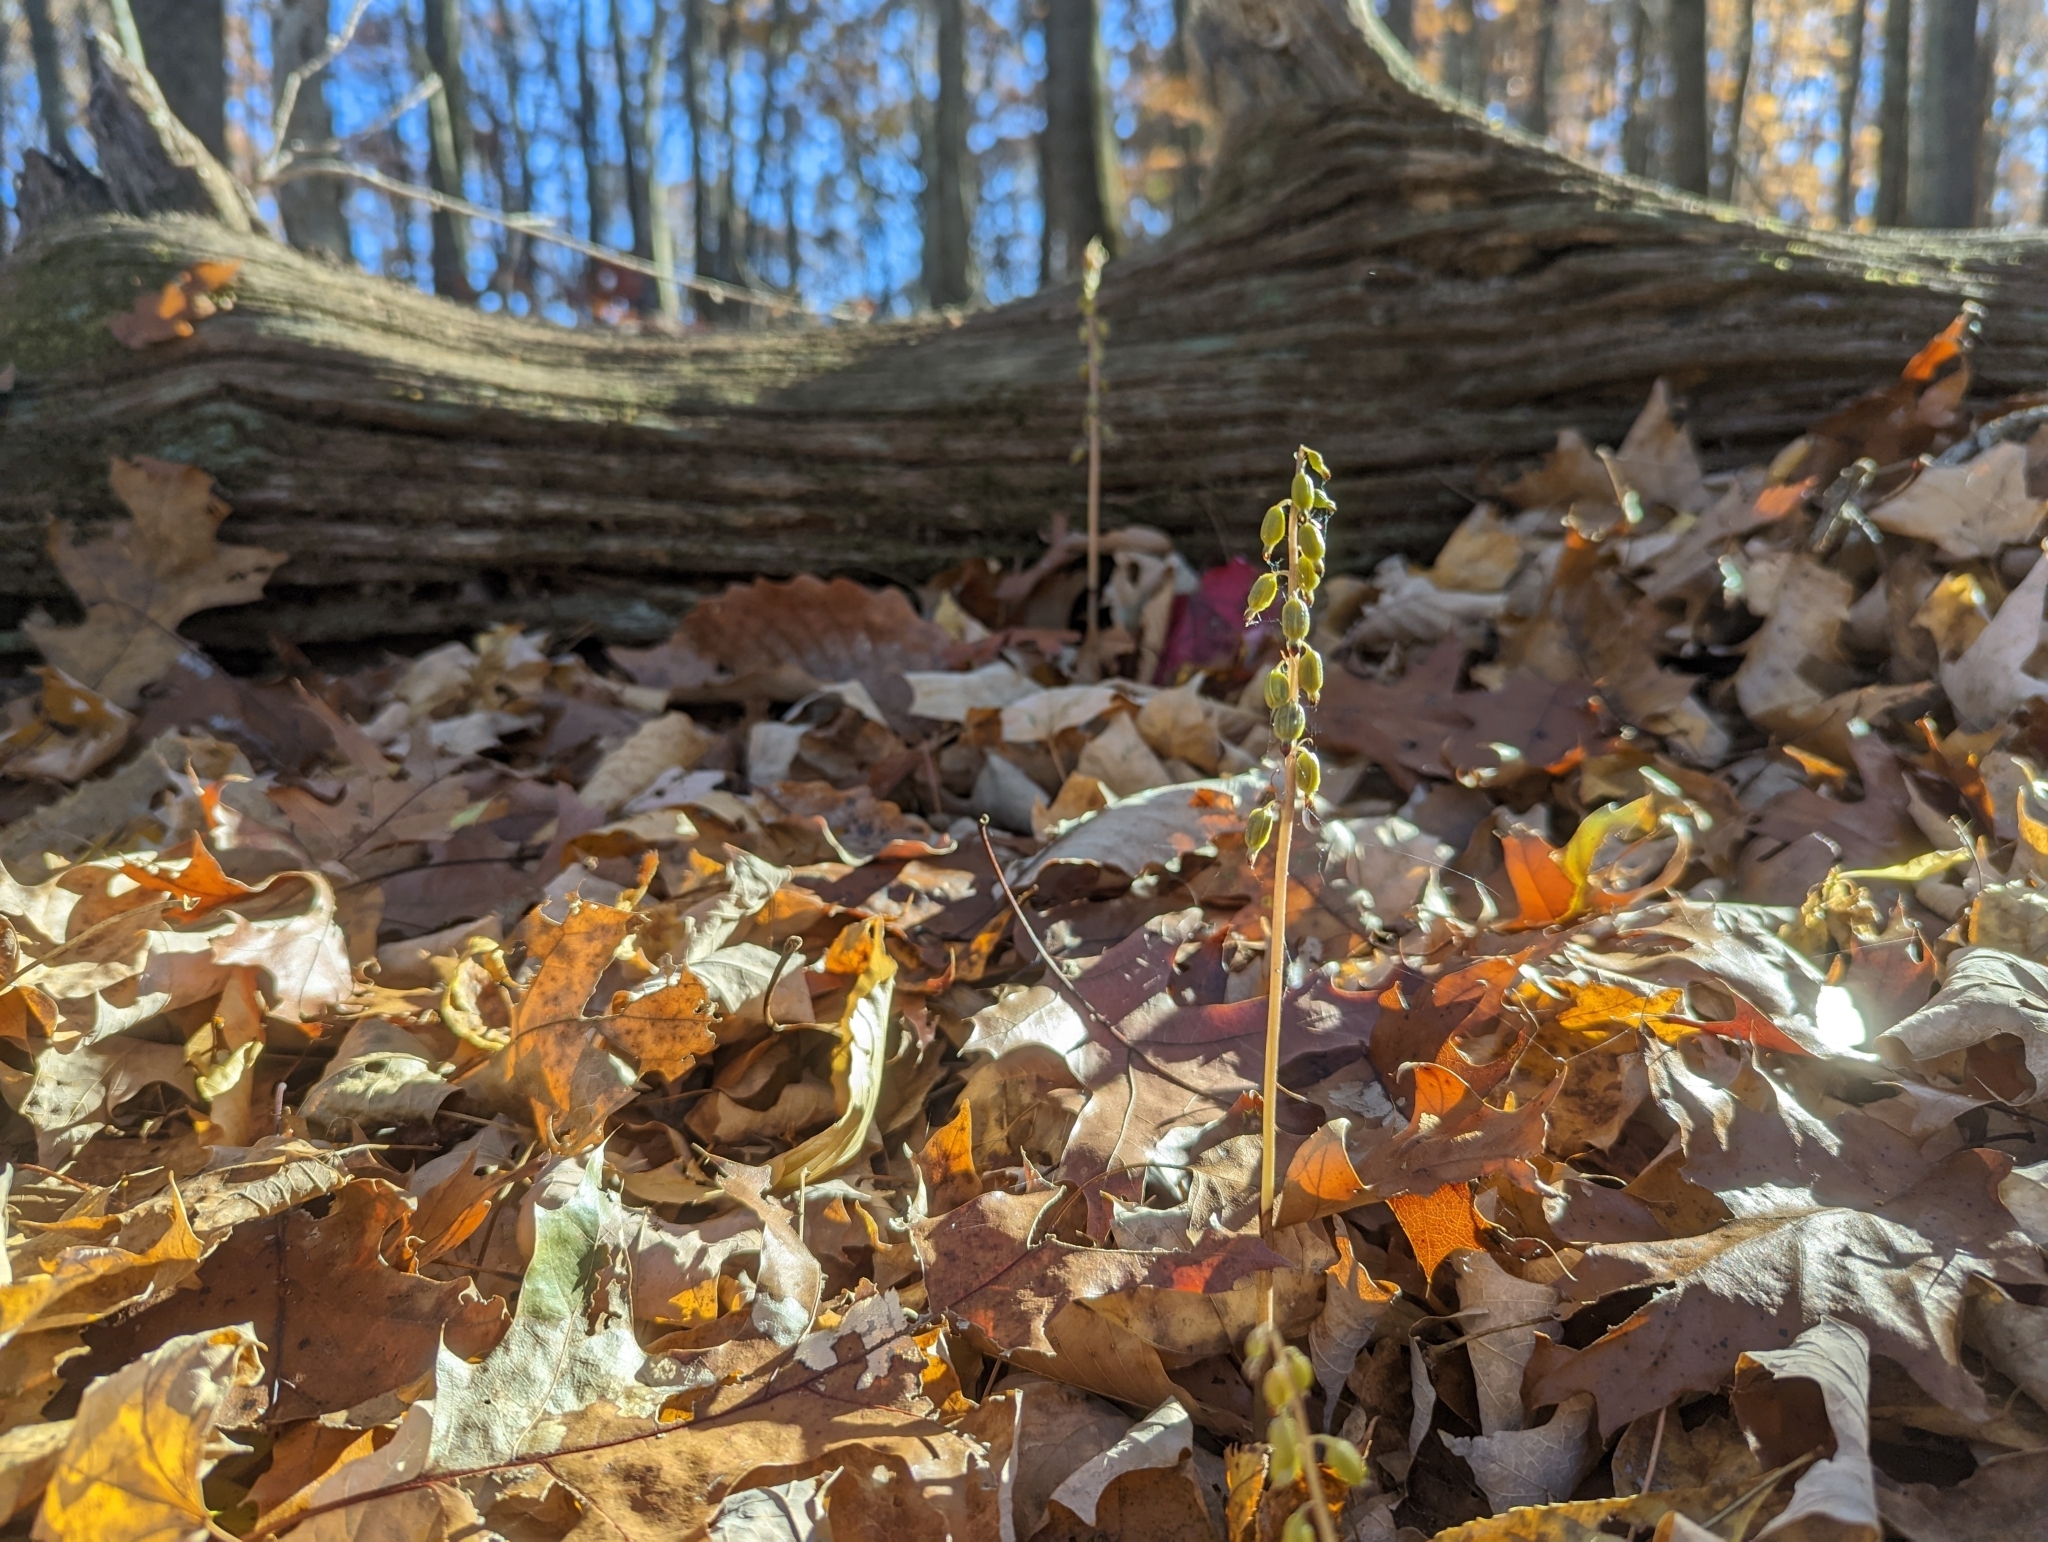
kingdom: Plantae
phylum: Tracheophyta
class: Liliopsida
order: Asparagales
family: Orchidaceae
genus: Corallorhiza
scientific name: Corallorhiza odontorhiza
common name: Autumn coralroot
